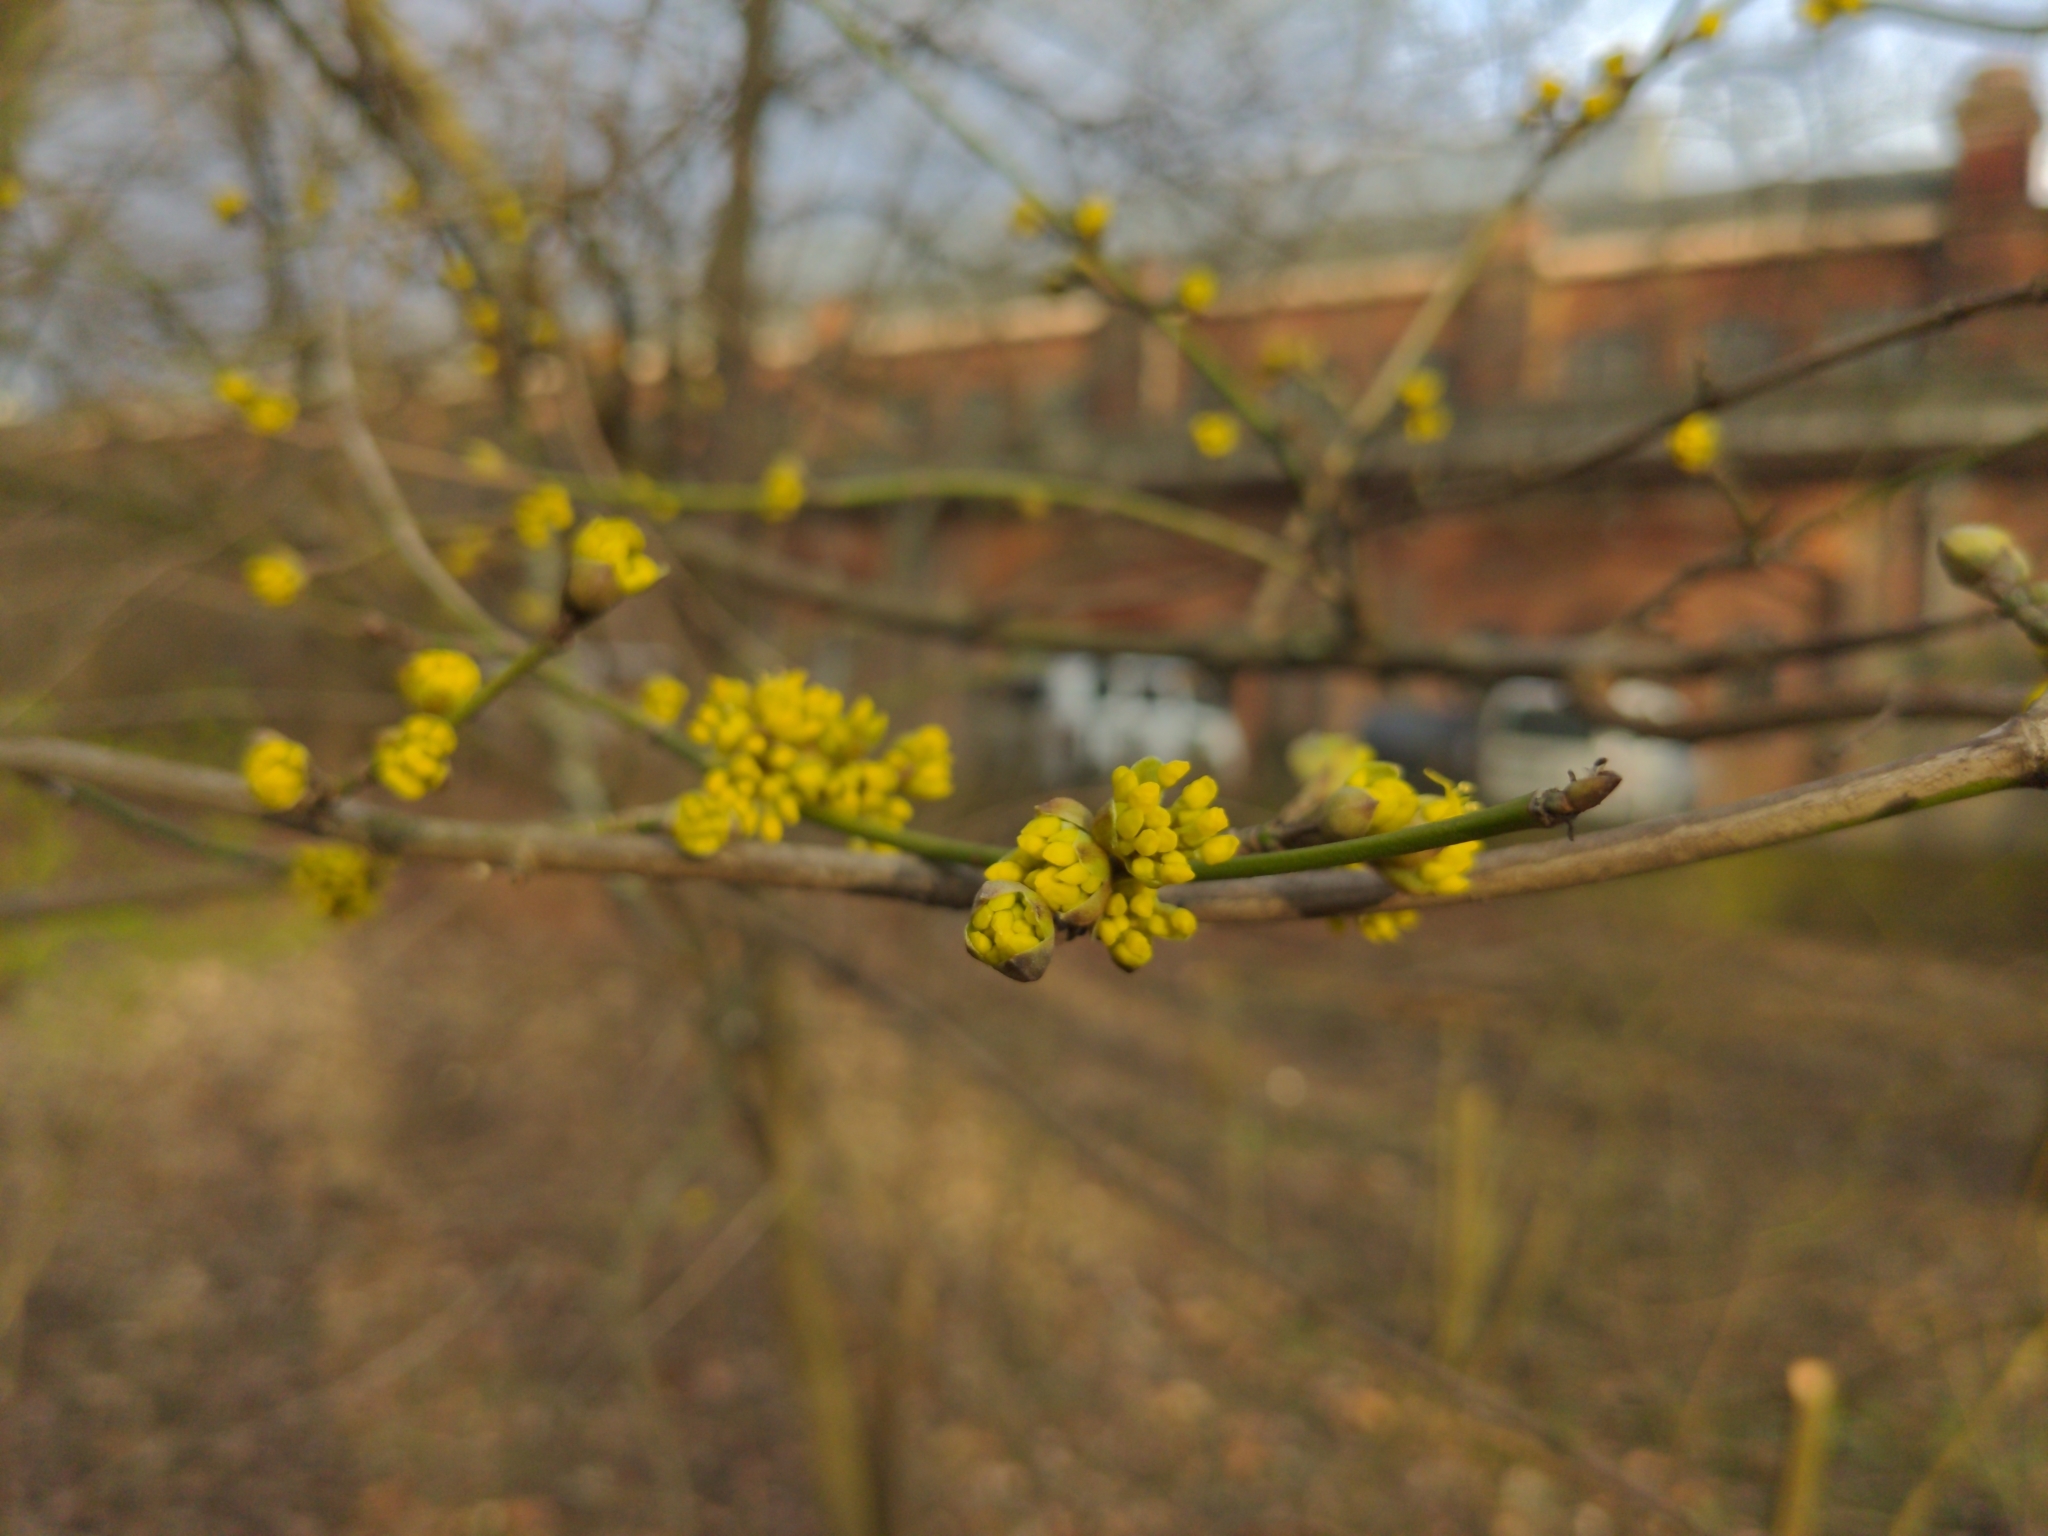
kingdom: Plantae
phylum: Tracheophyta
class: Magnoliopsida
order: Cornales
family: Cornaceae
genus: Cornus
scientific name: Cornus mas
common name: Cornelian-cherry
